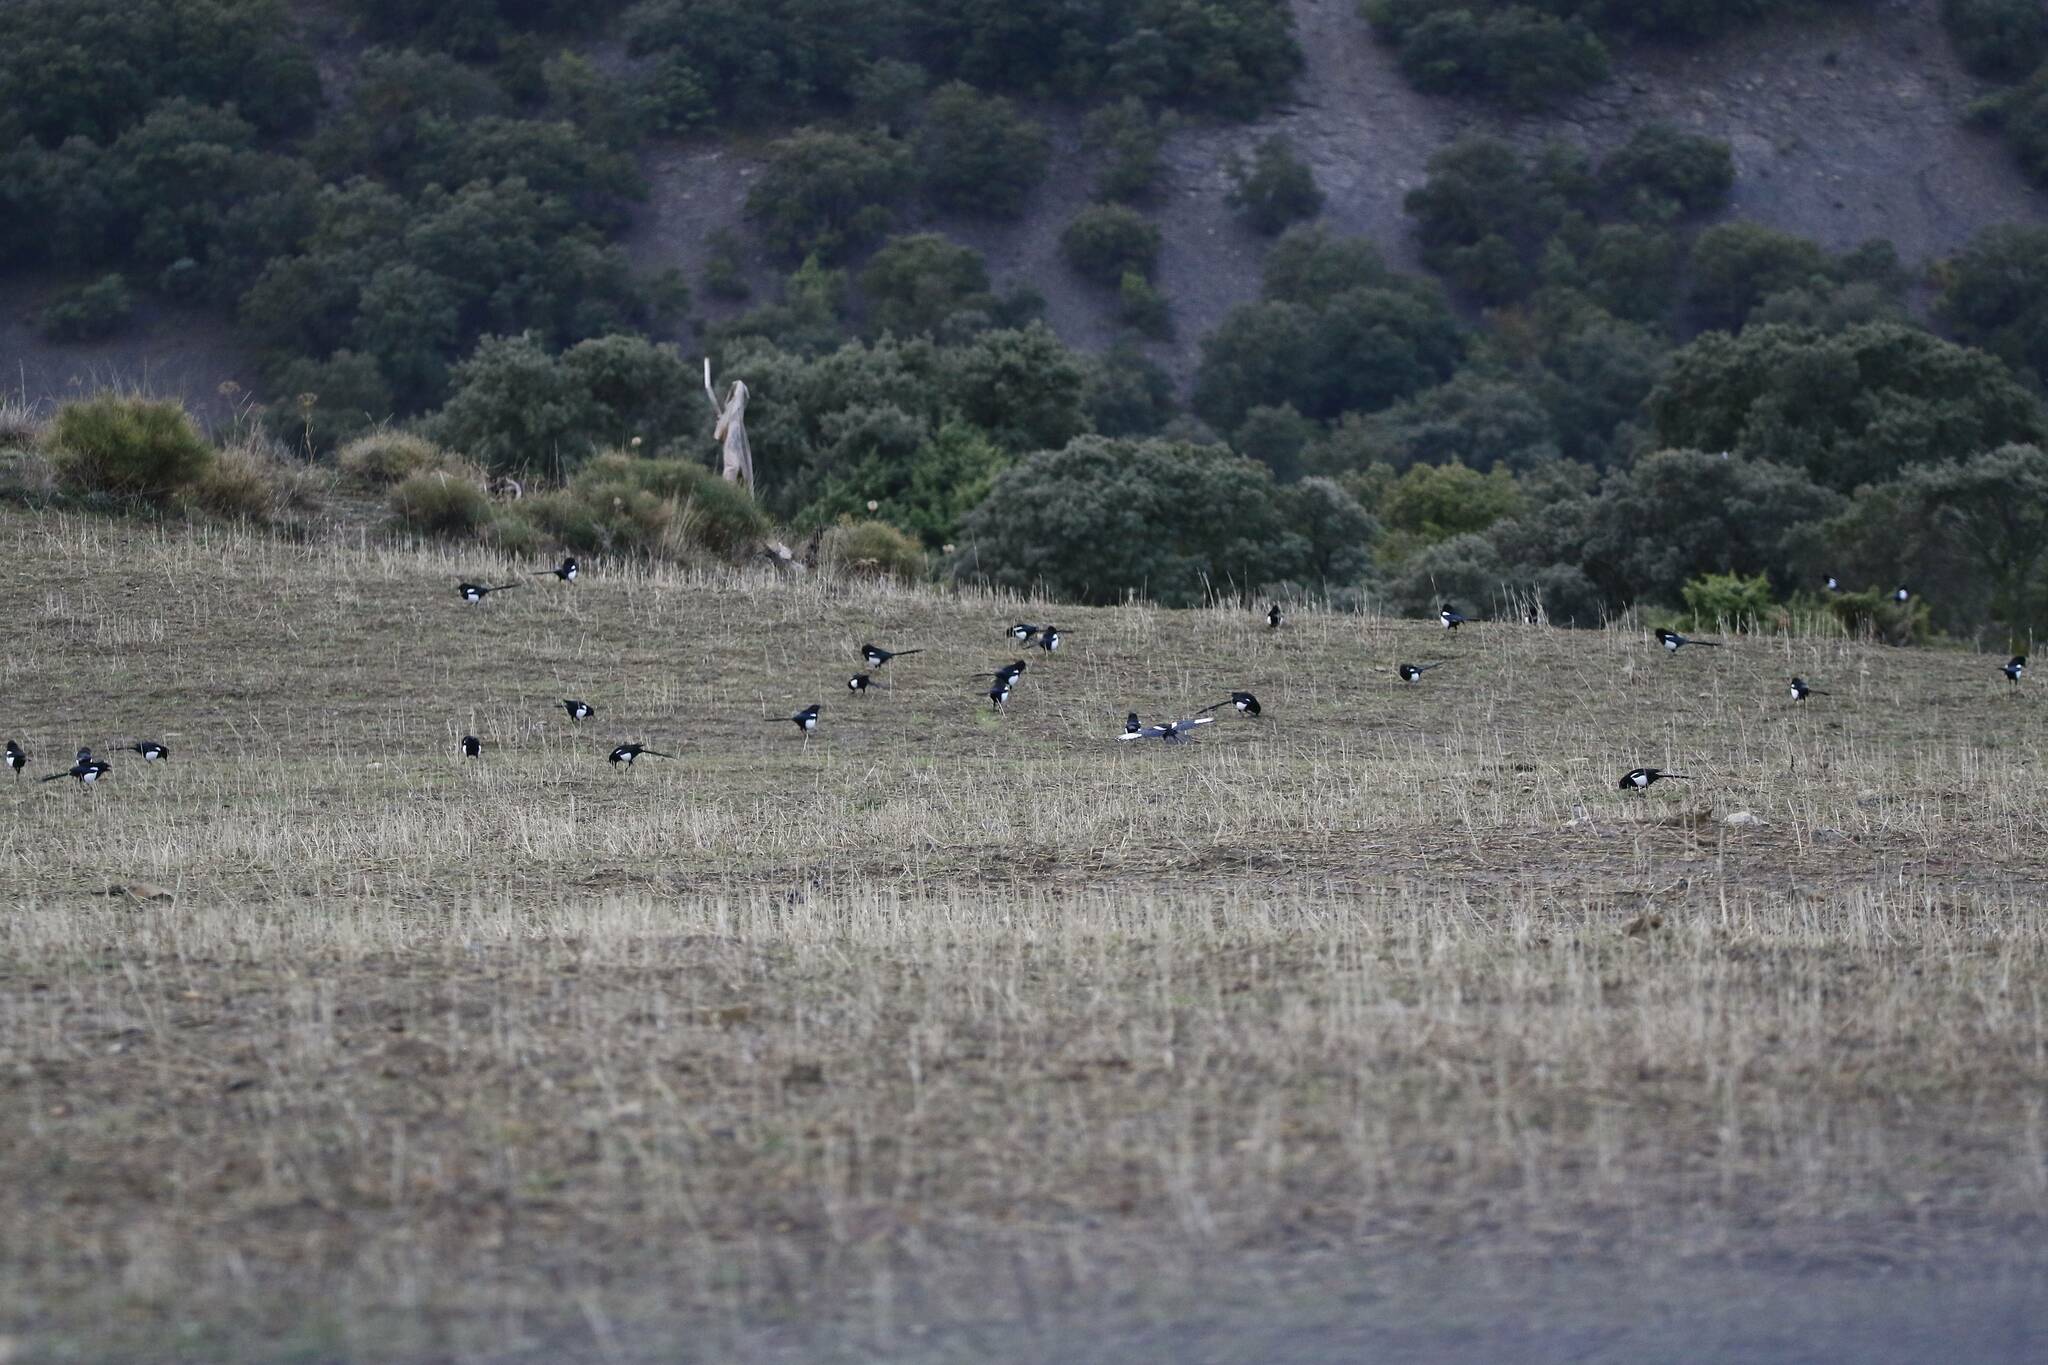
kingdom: Animalia
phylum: Chordata
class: Aves
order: Passeriformes
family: Corvidae
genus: Pica
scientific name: Pica mauritanica
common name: Maghreb magpie
